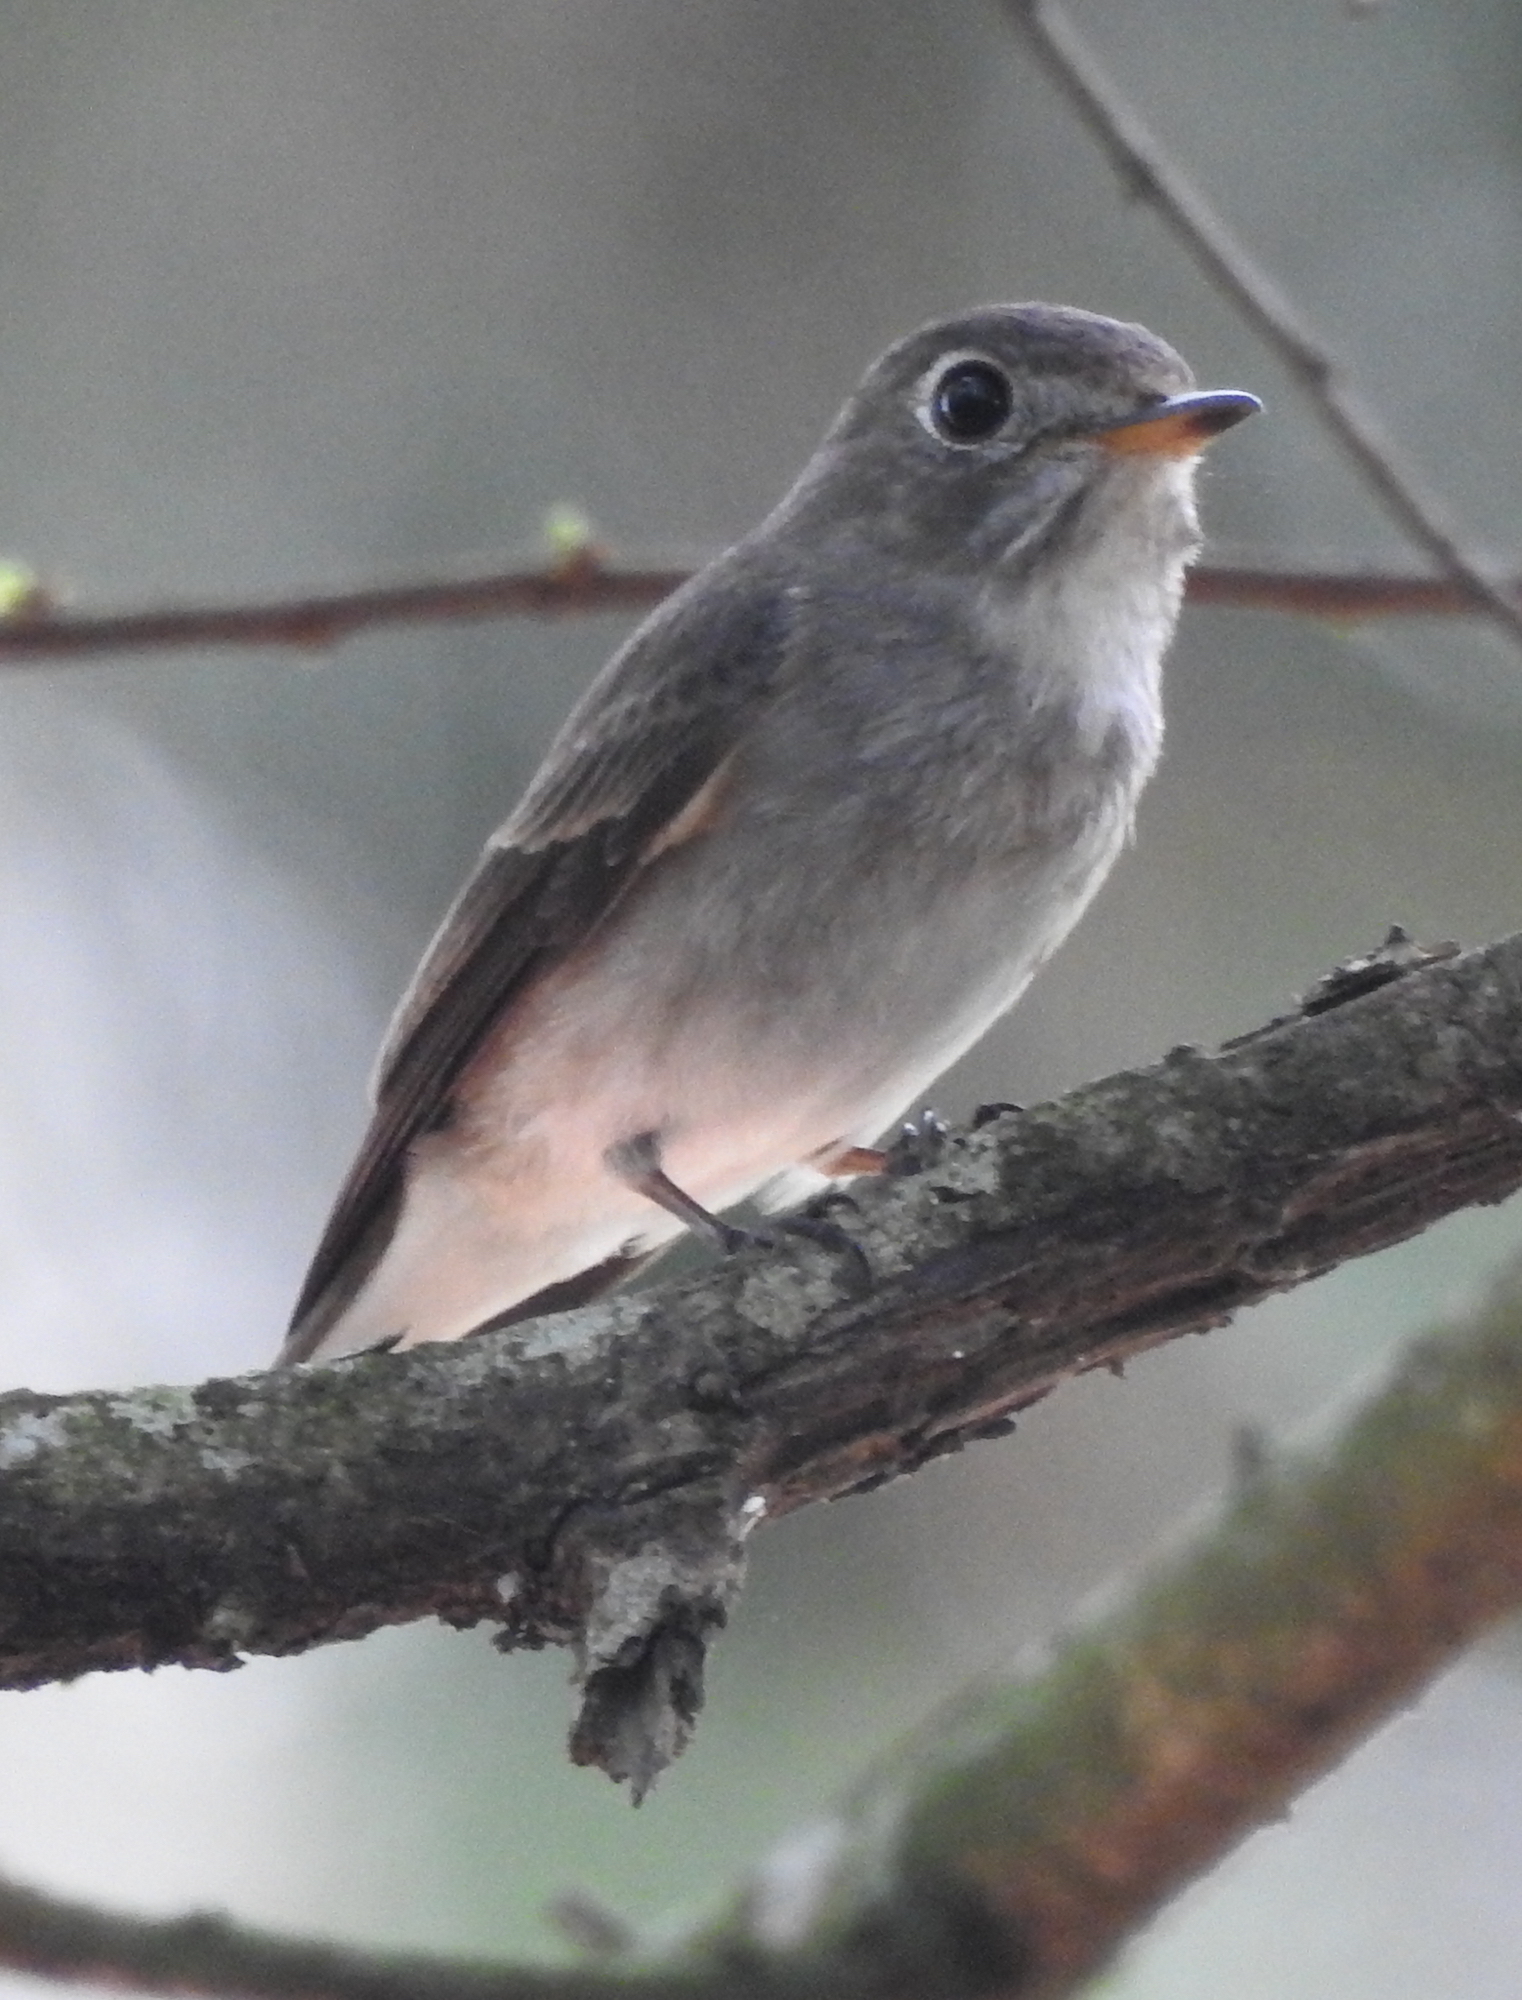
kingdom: Animalia
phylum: Chordata
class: Aves
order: Passeriformes
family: Muscicapidae
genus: Muscicapa
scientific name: Muscicapa latirostris
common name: Asian brown flycatcher
